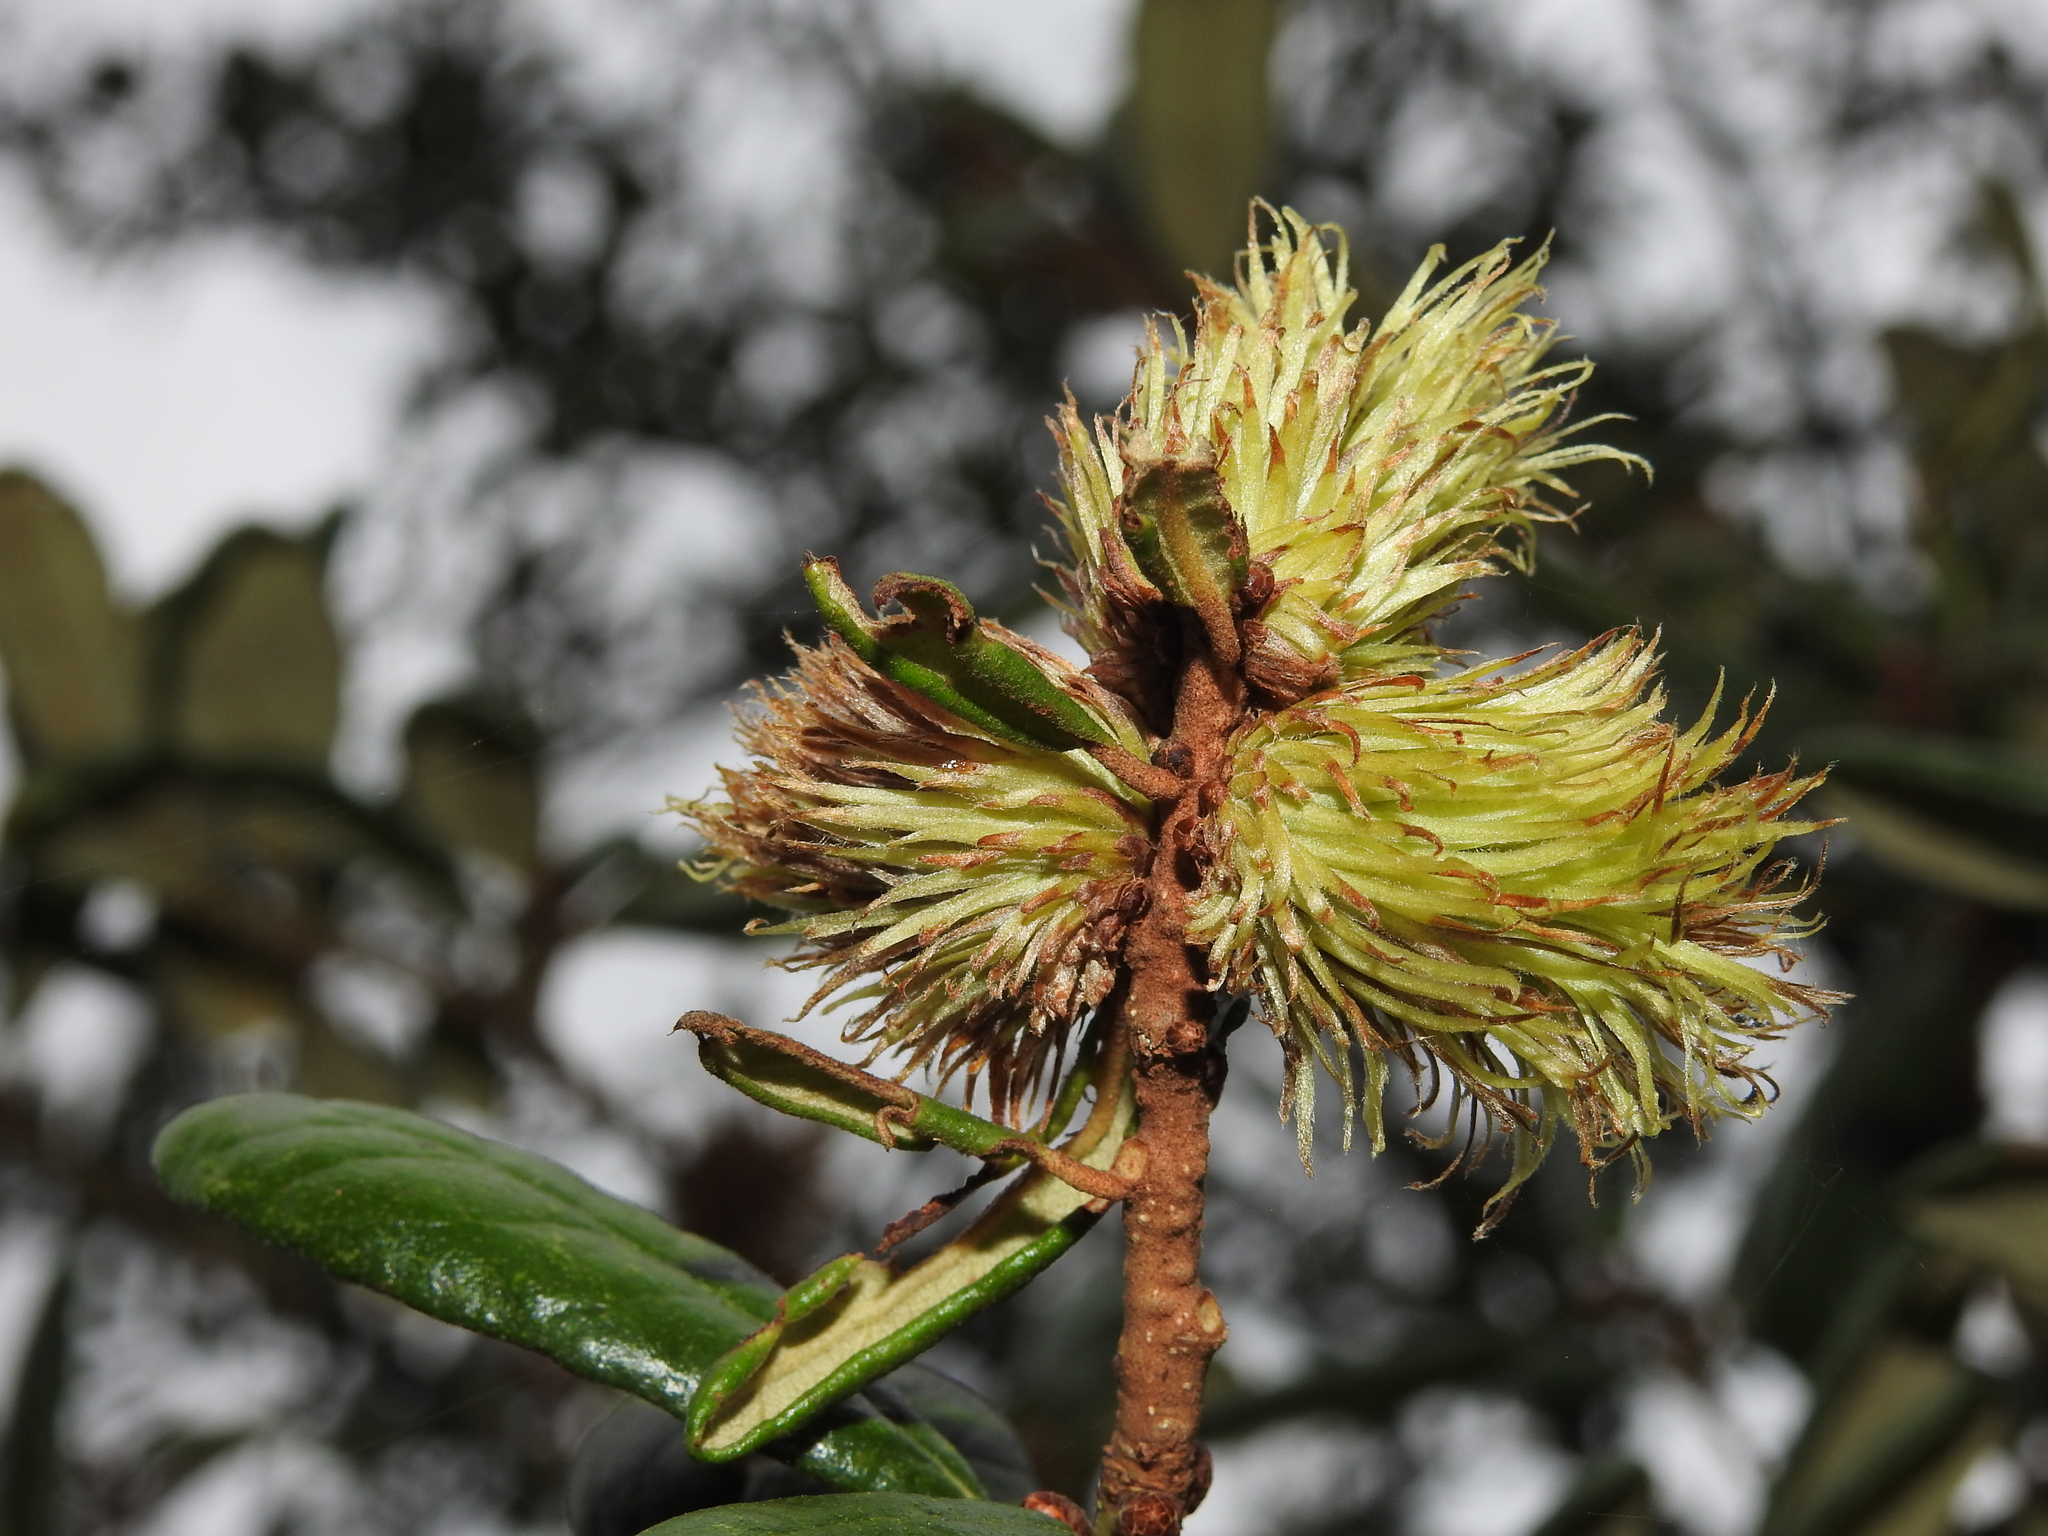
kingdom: Animalia
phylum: Arthropoda
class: Insecta
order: Hymenoptera
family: Cynipidae
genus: Andricus
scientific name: Andricus quercusfoliatus
